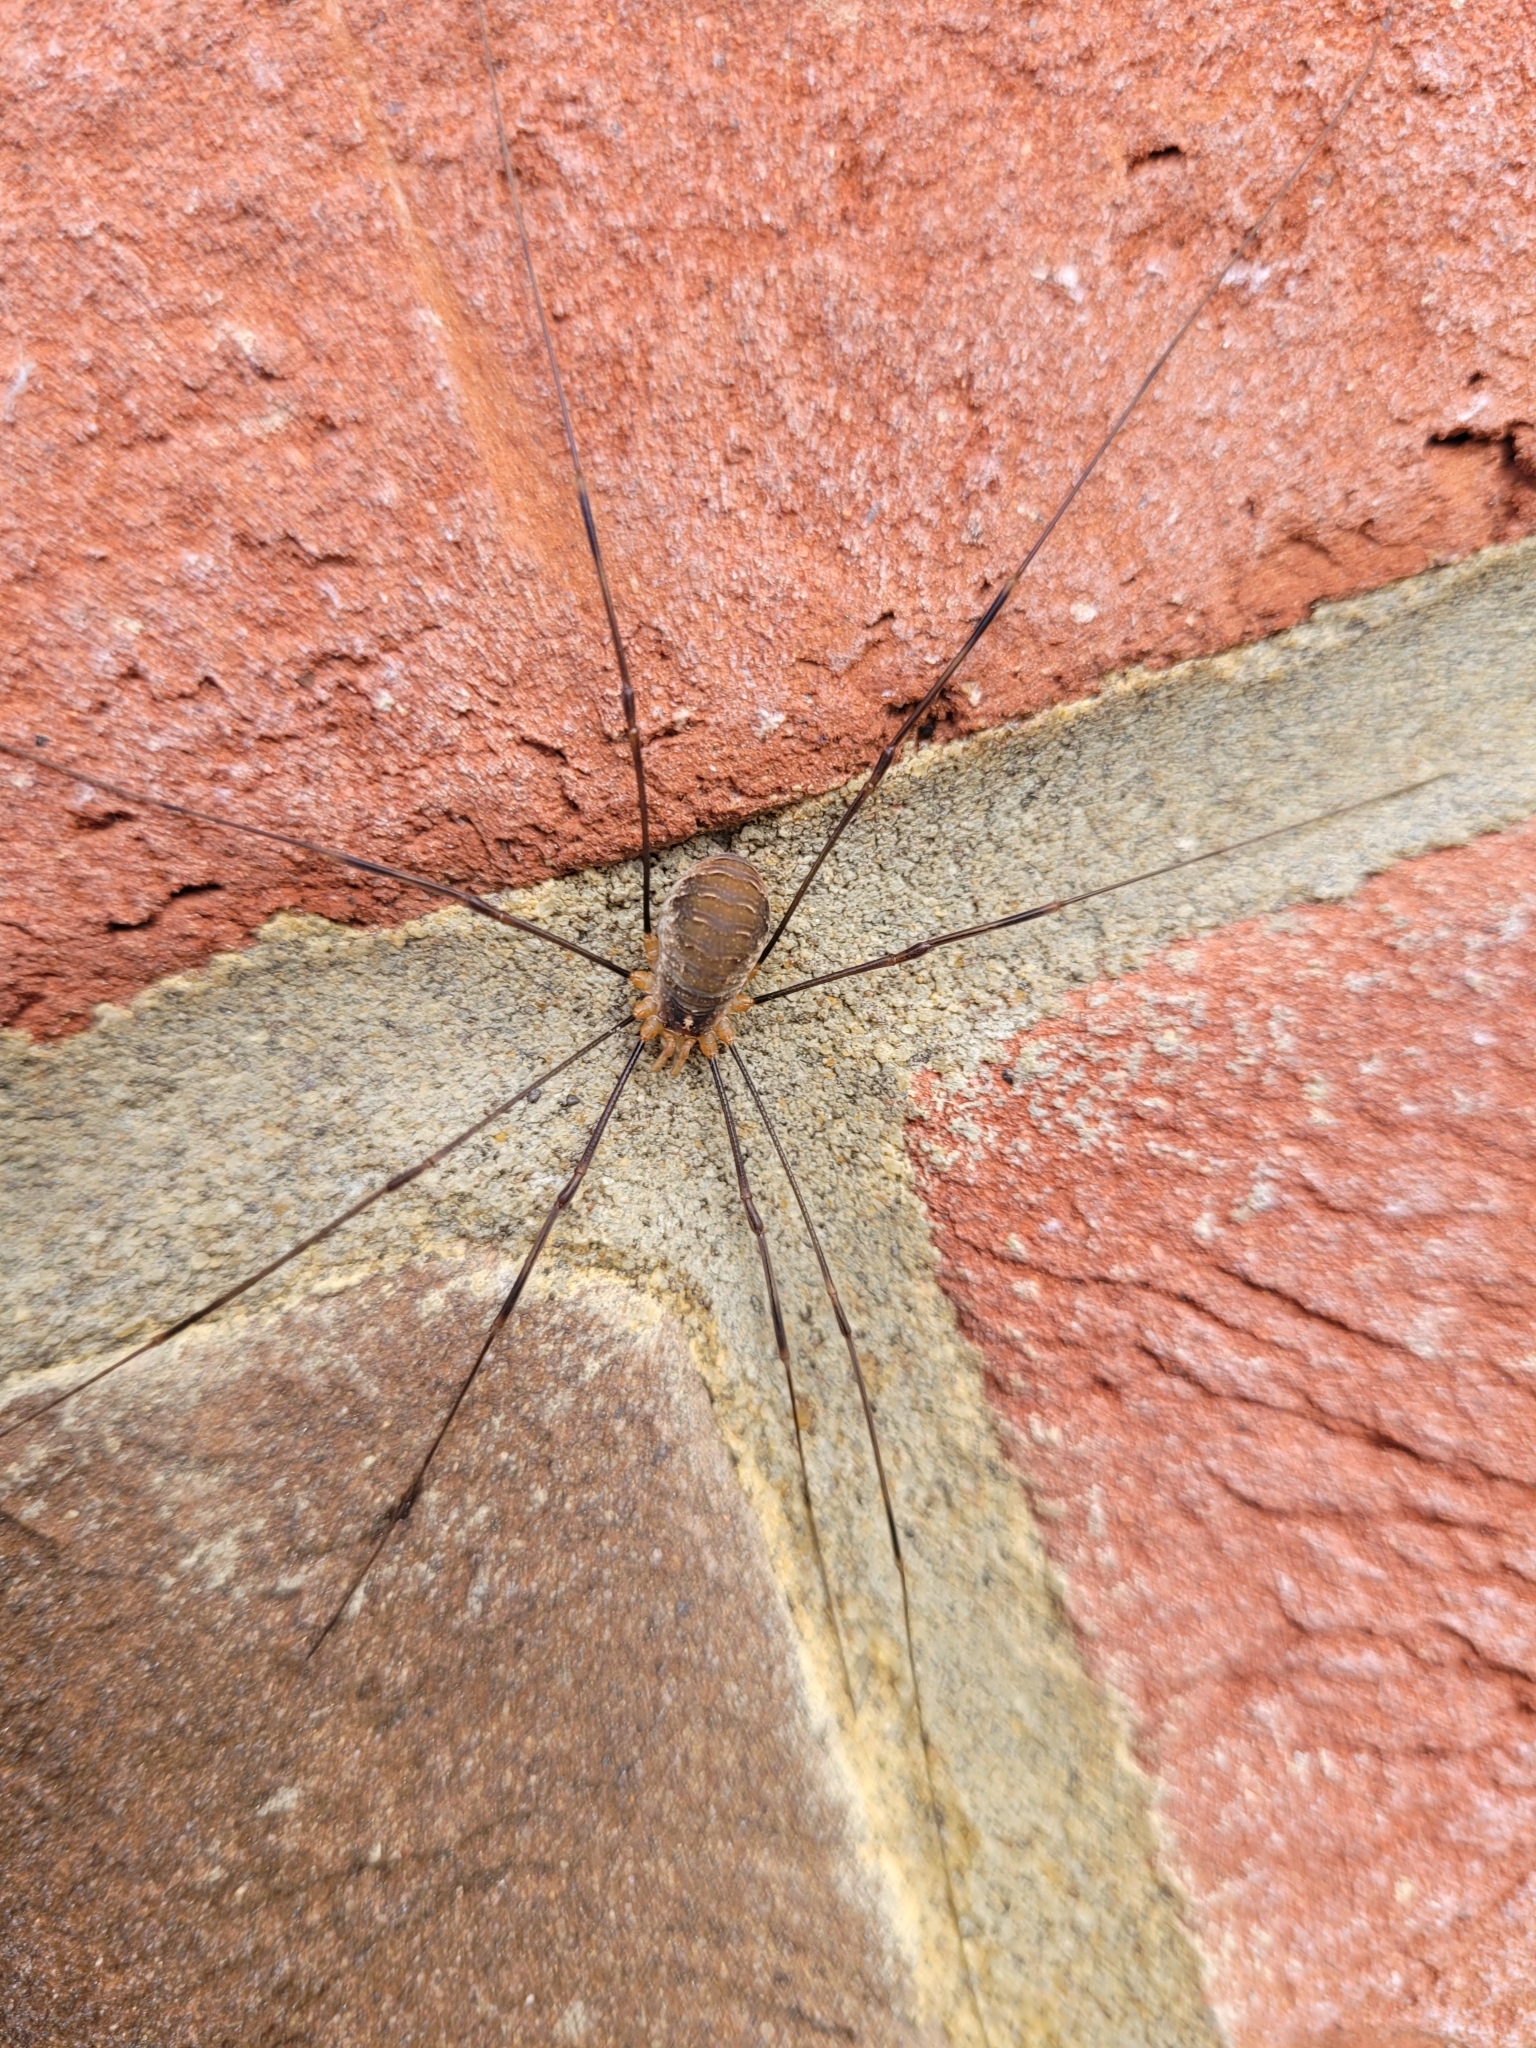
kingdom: Animalia
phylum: Arthropoda
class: Arachnida
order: Opiliones
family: Phalangiidae
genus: Opilio
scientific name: Opilio canestrinii
